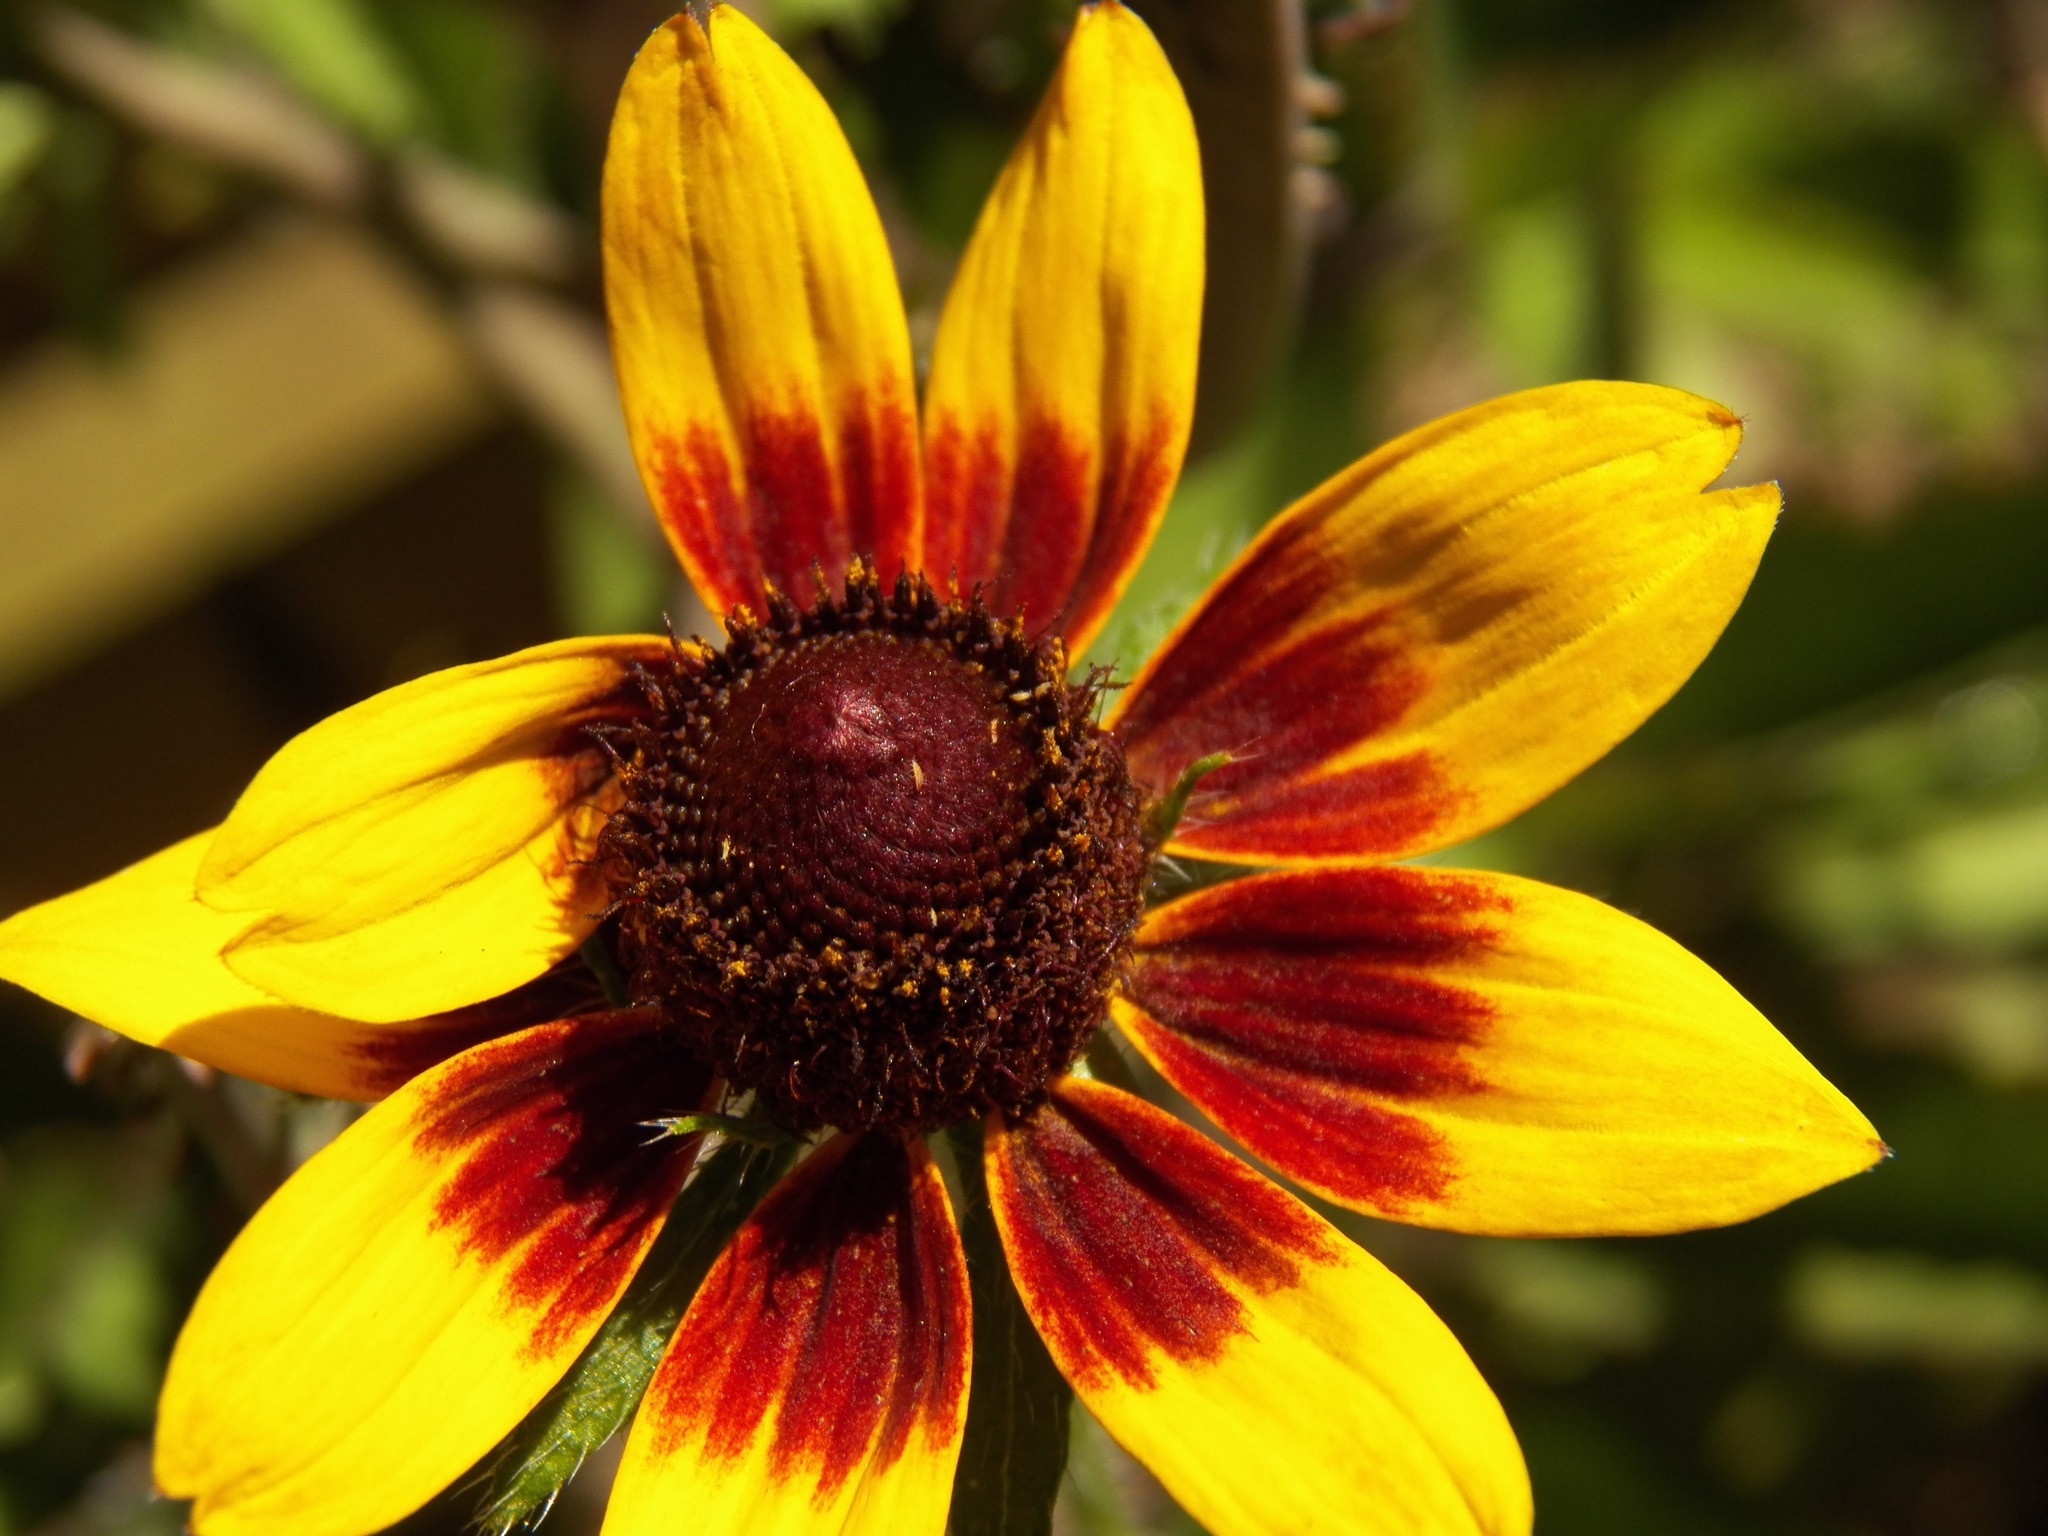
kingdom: Plantae
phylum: Tracheophyta
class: Magnoliopsida
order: Asterales
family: Asteraceae
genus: Rudbeckia
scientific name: Rudbeckia hirta
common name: Black-eyed-susan
